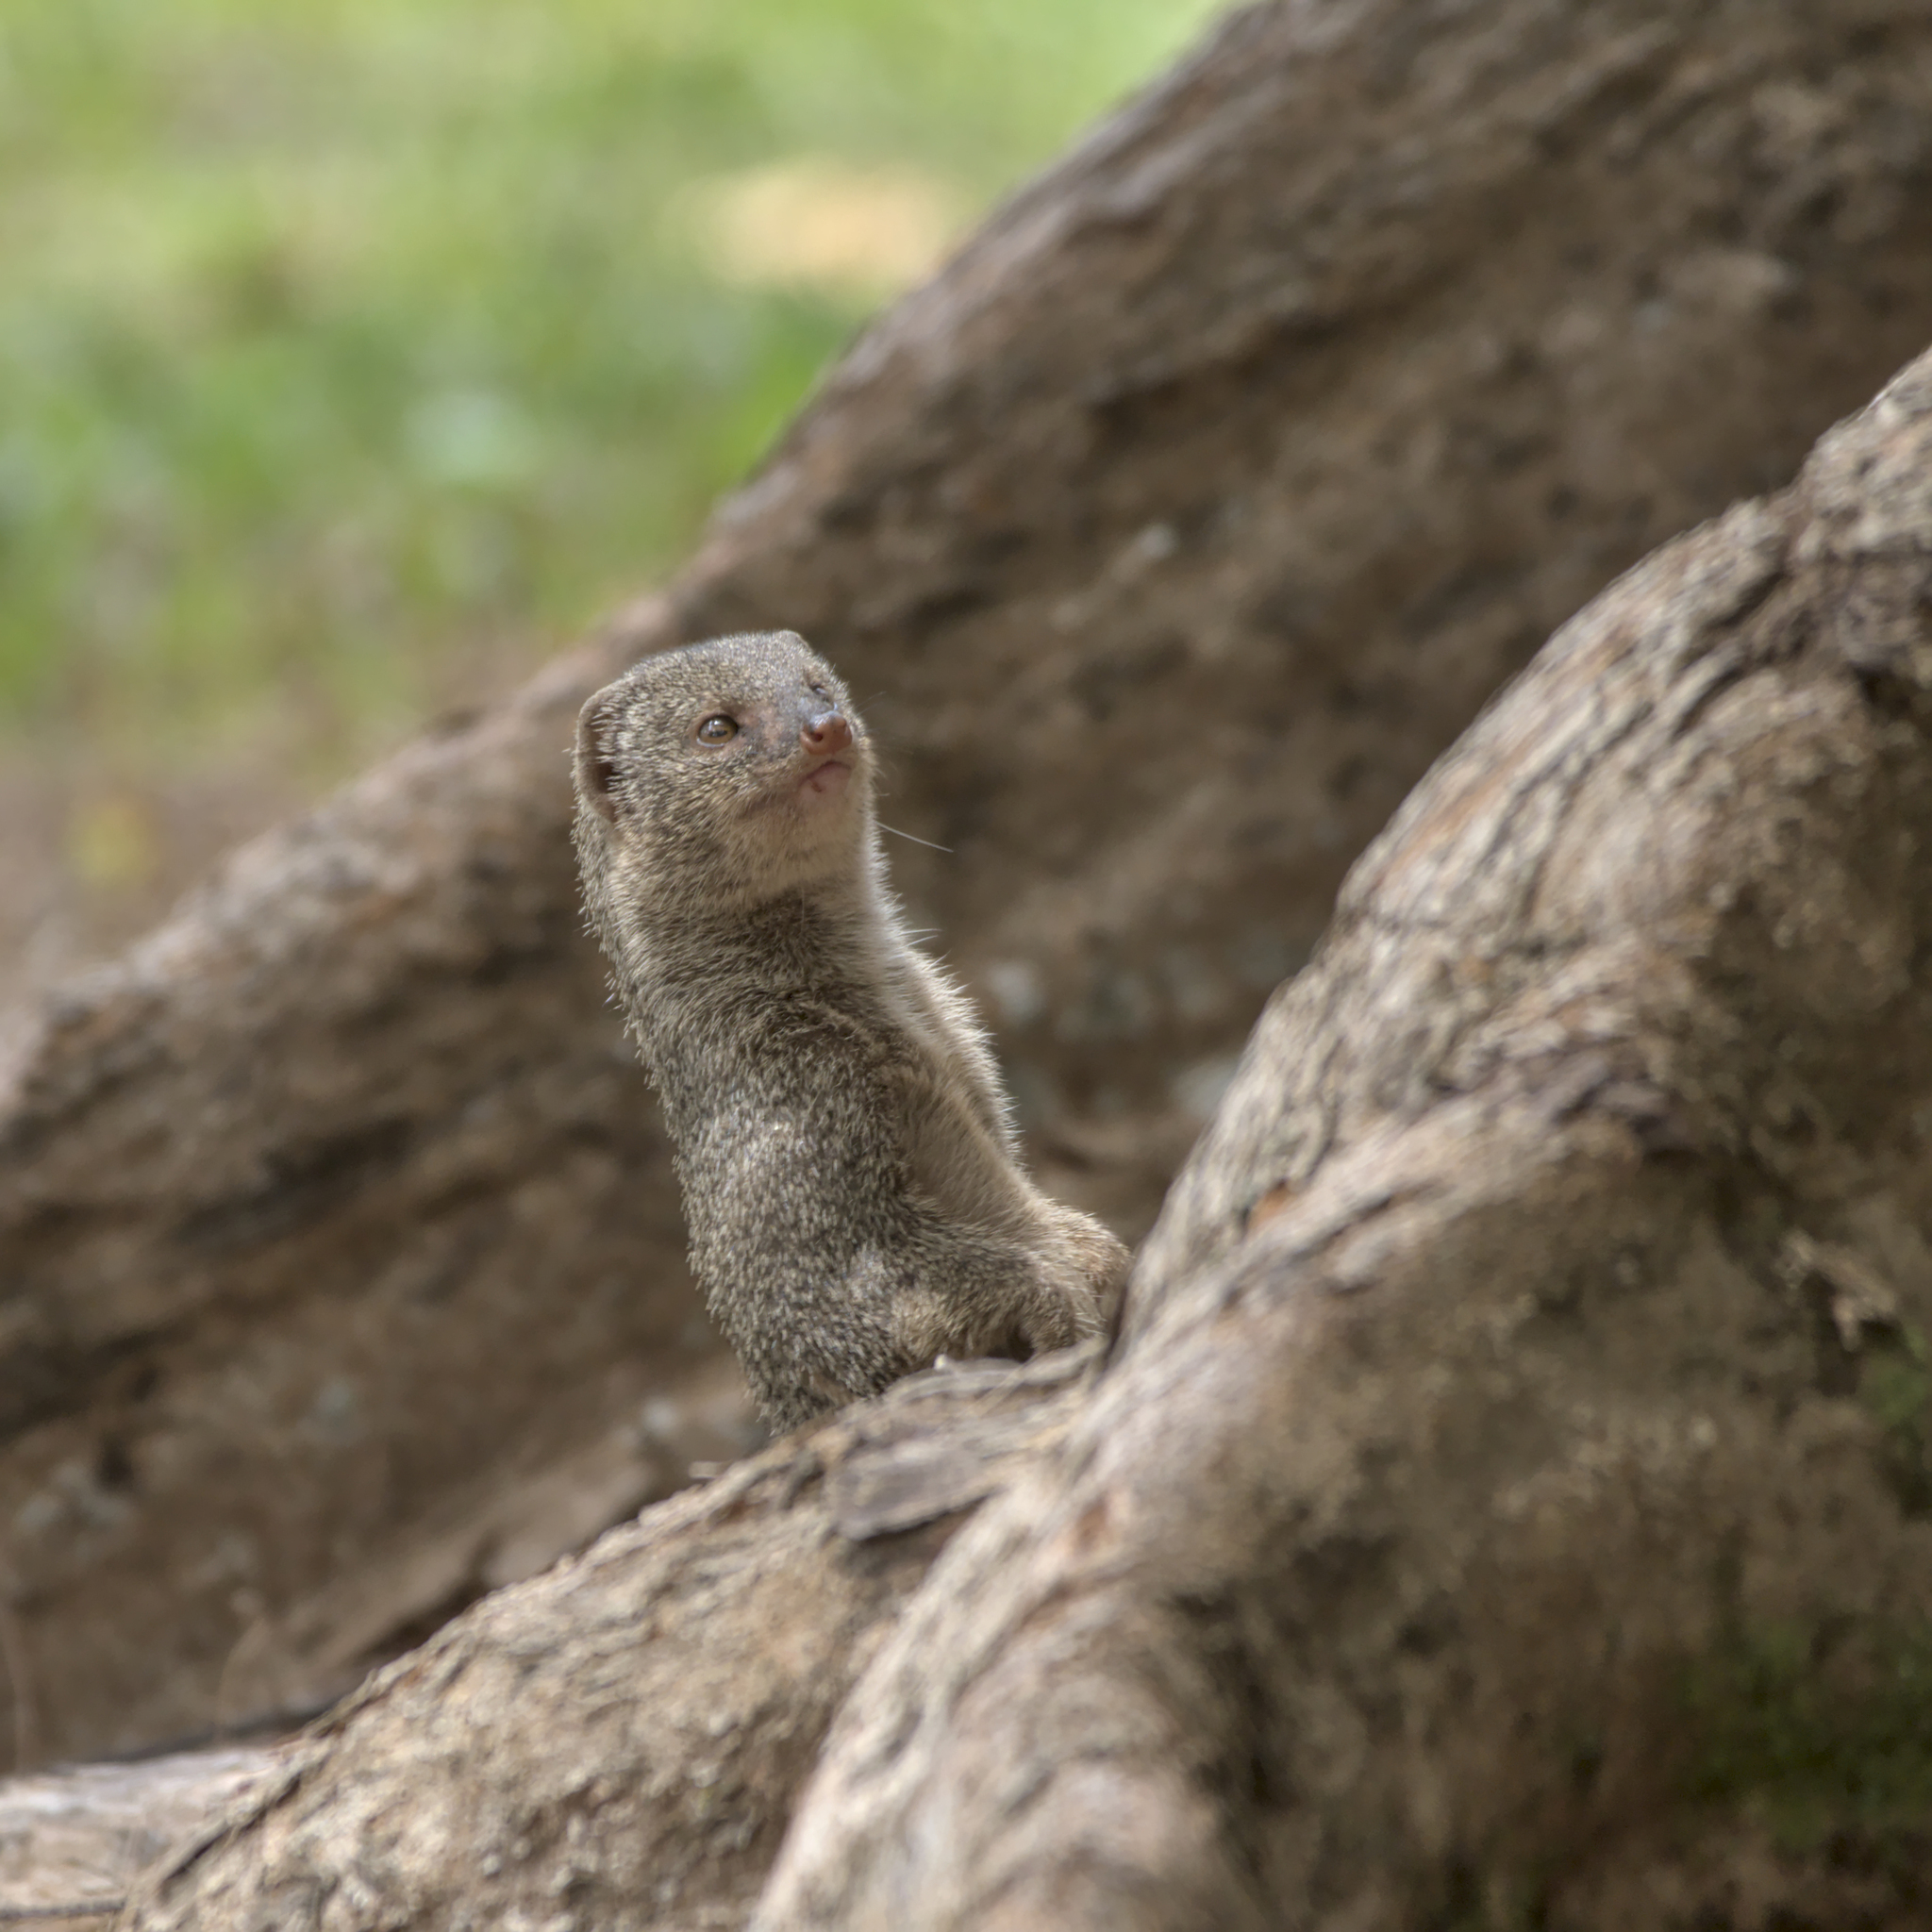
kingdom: Animalia
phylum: Chordata
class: Mammalia
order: Carnivora
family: Herpestidae
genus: Herpestes
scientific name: Herpestes javanicus
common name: Small asian mongoose
